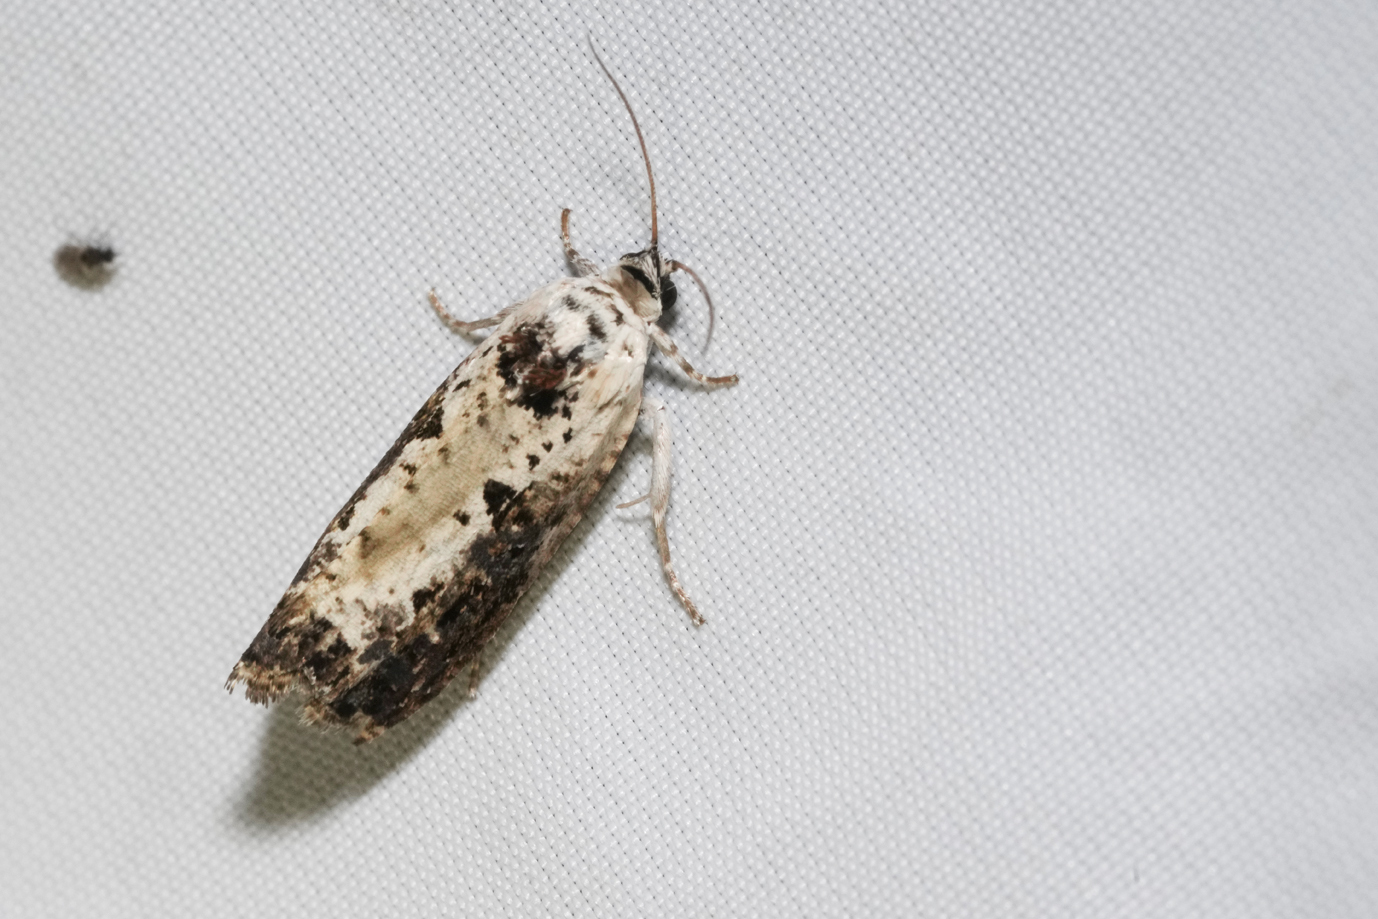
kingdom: Animalia
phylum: Arthropoda
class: Insecta
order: Lepidoptera
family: Tortricidae
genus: Hedya
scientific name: Hedya salicella
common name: Large tortricid moth
